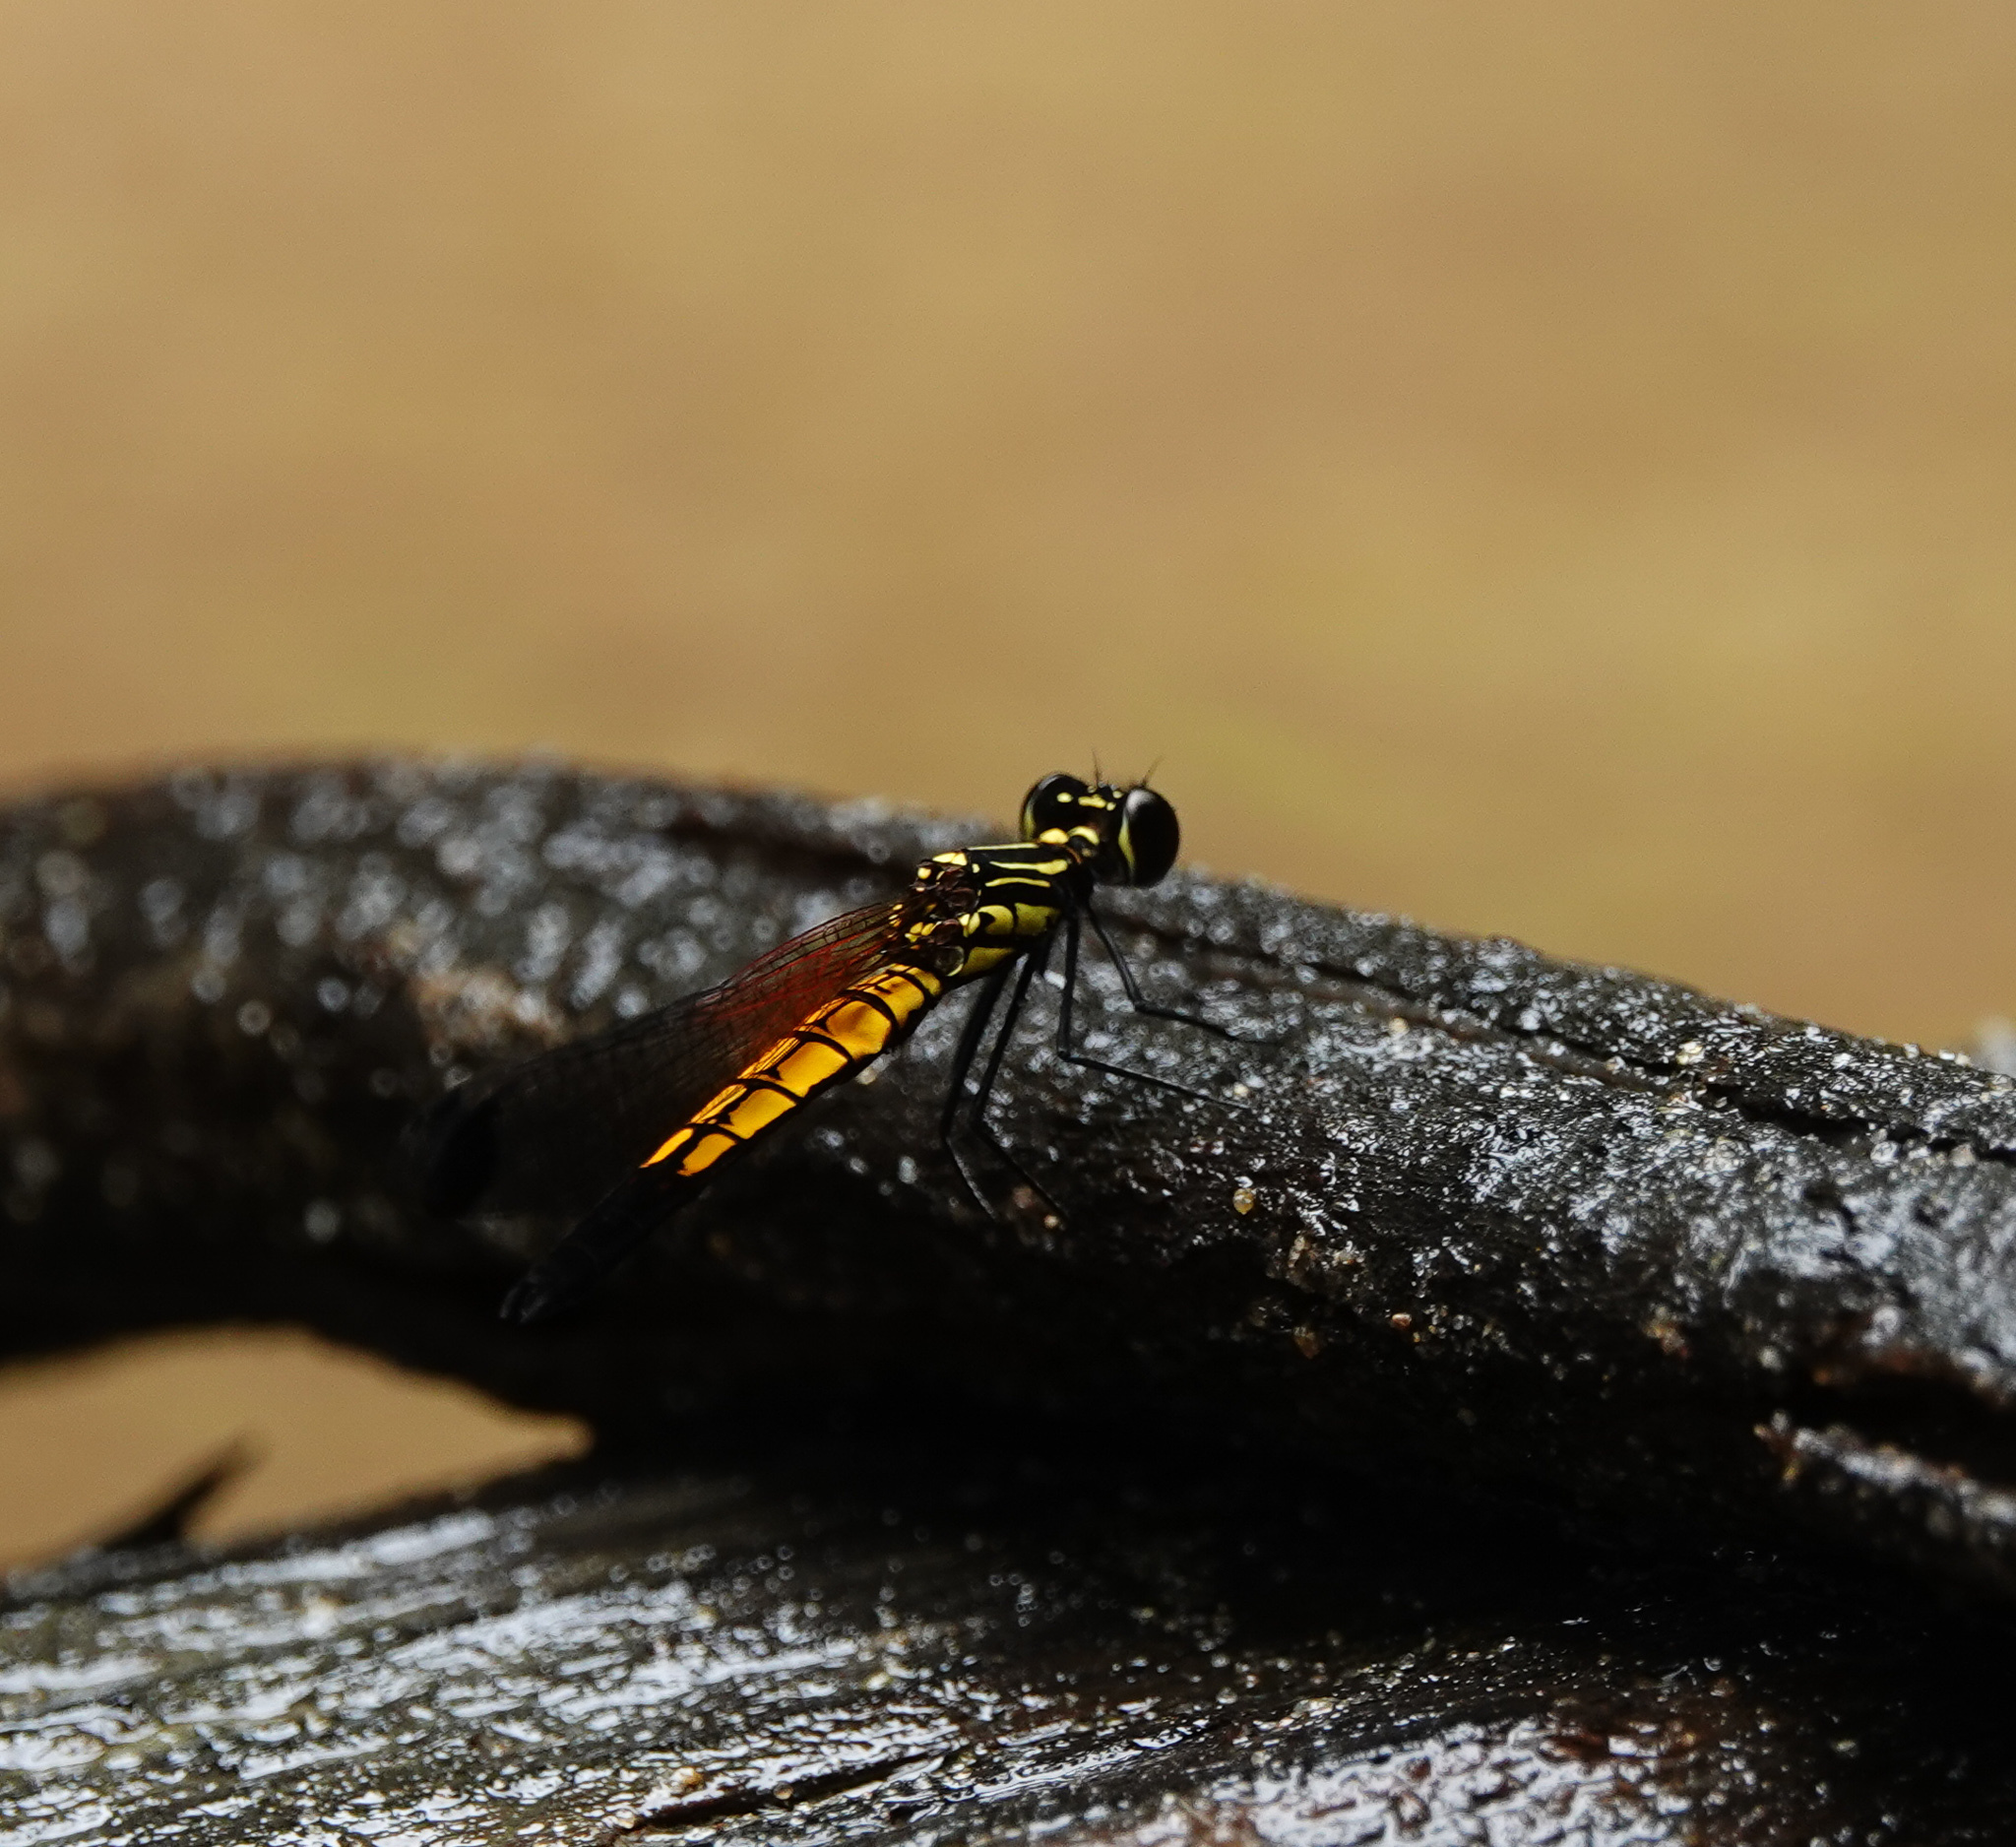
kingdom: Animalia
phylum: Arthropoda
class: Insecta
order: Odonata
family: Chlorocyphidae
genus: Libellago
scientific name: Libellago lineata
